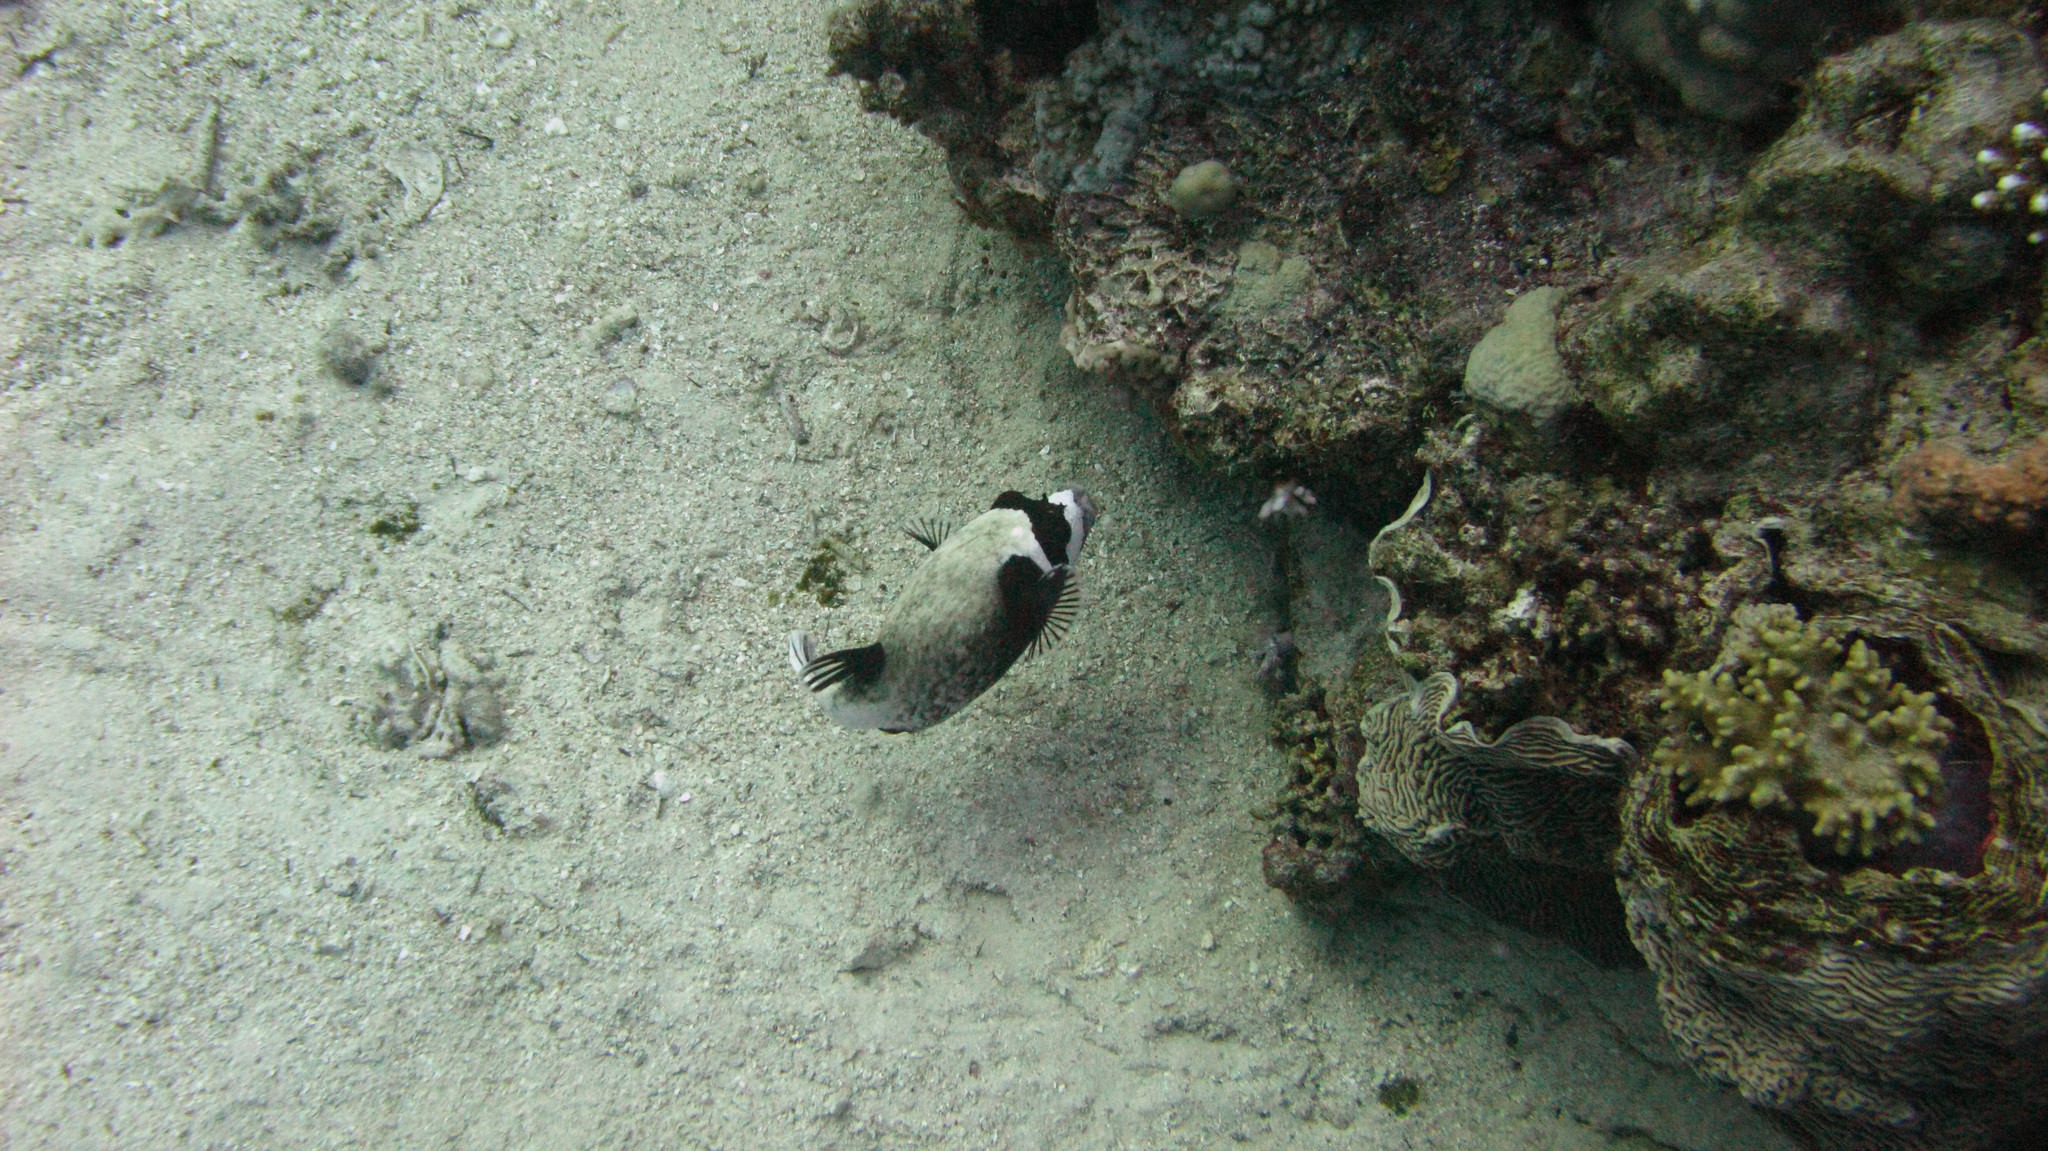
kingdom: Animalia
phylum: Chordata
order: Tetraodontiformes
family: Tetraodontidae
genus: Arothron
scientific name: Arothron diadematus
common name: Masked puffer
